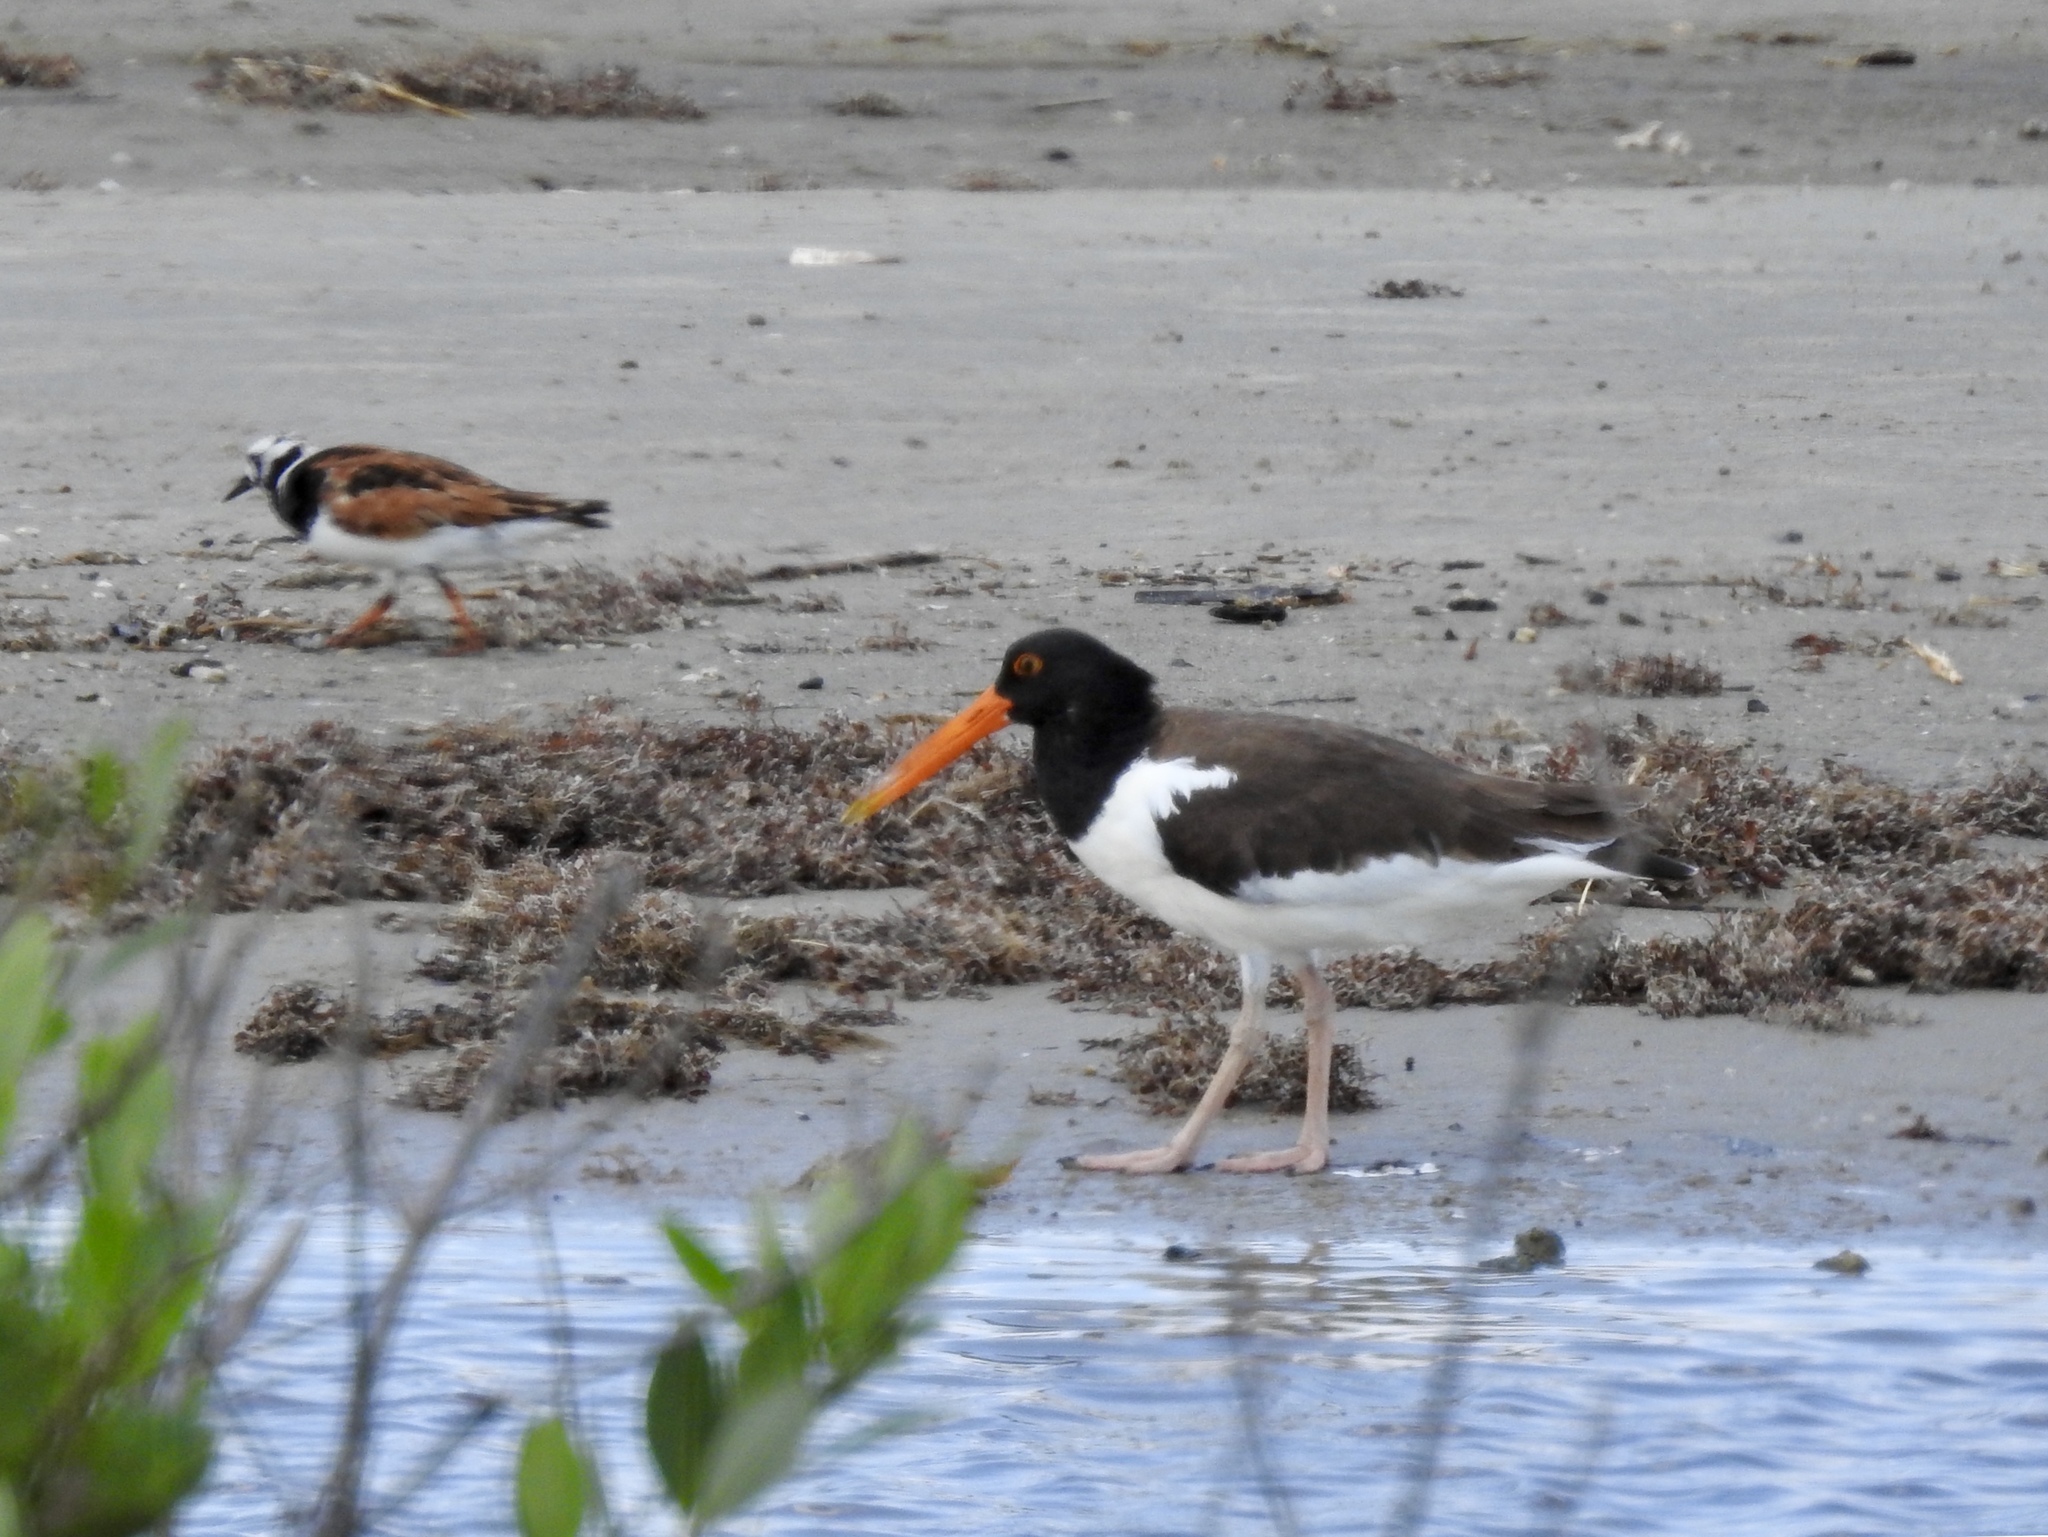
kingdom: Animalia
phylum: Chordata
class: Aves
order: Charadriiformes
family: Haematopodidae
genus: Haematopus
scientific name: Haematopus palliatus
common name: American oystercatcher
